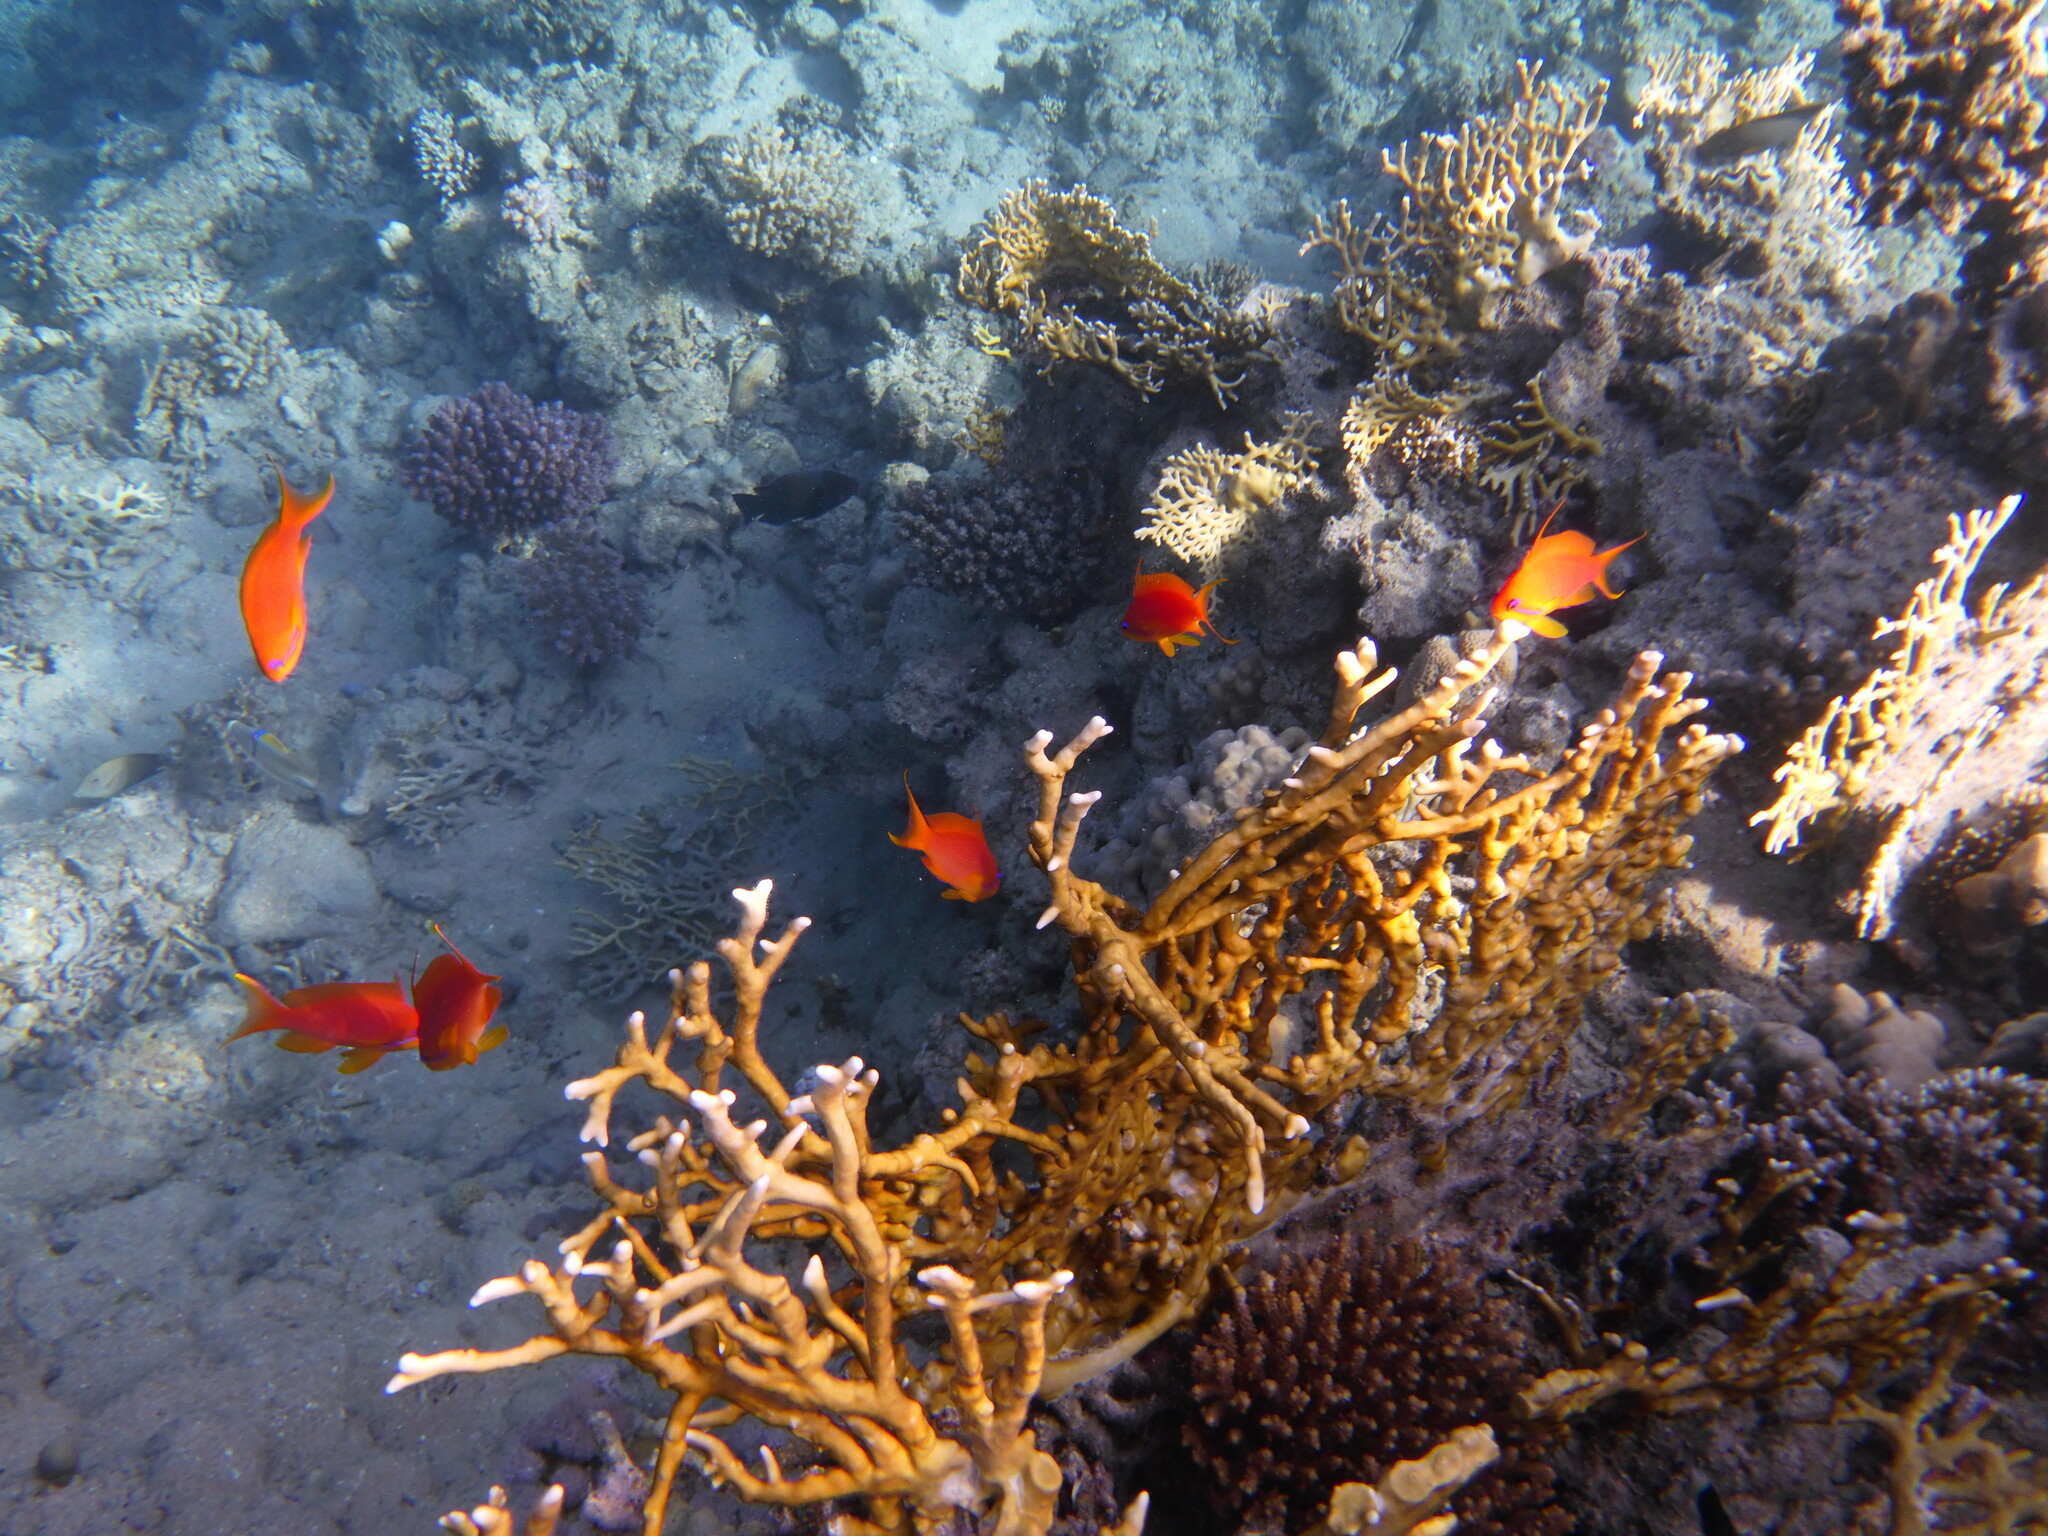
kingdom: Animalia
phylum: Chordata
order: Perciformes
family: Serranidae
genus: Pseudanthias
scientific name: Pseudanthias squamipinnis
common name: Scalefin anthias
